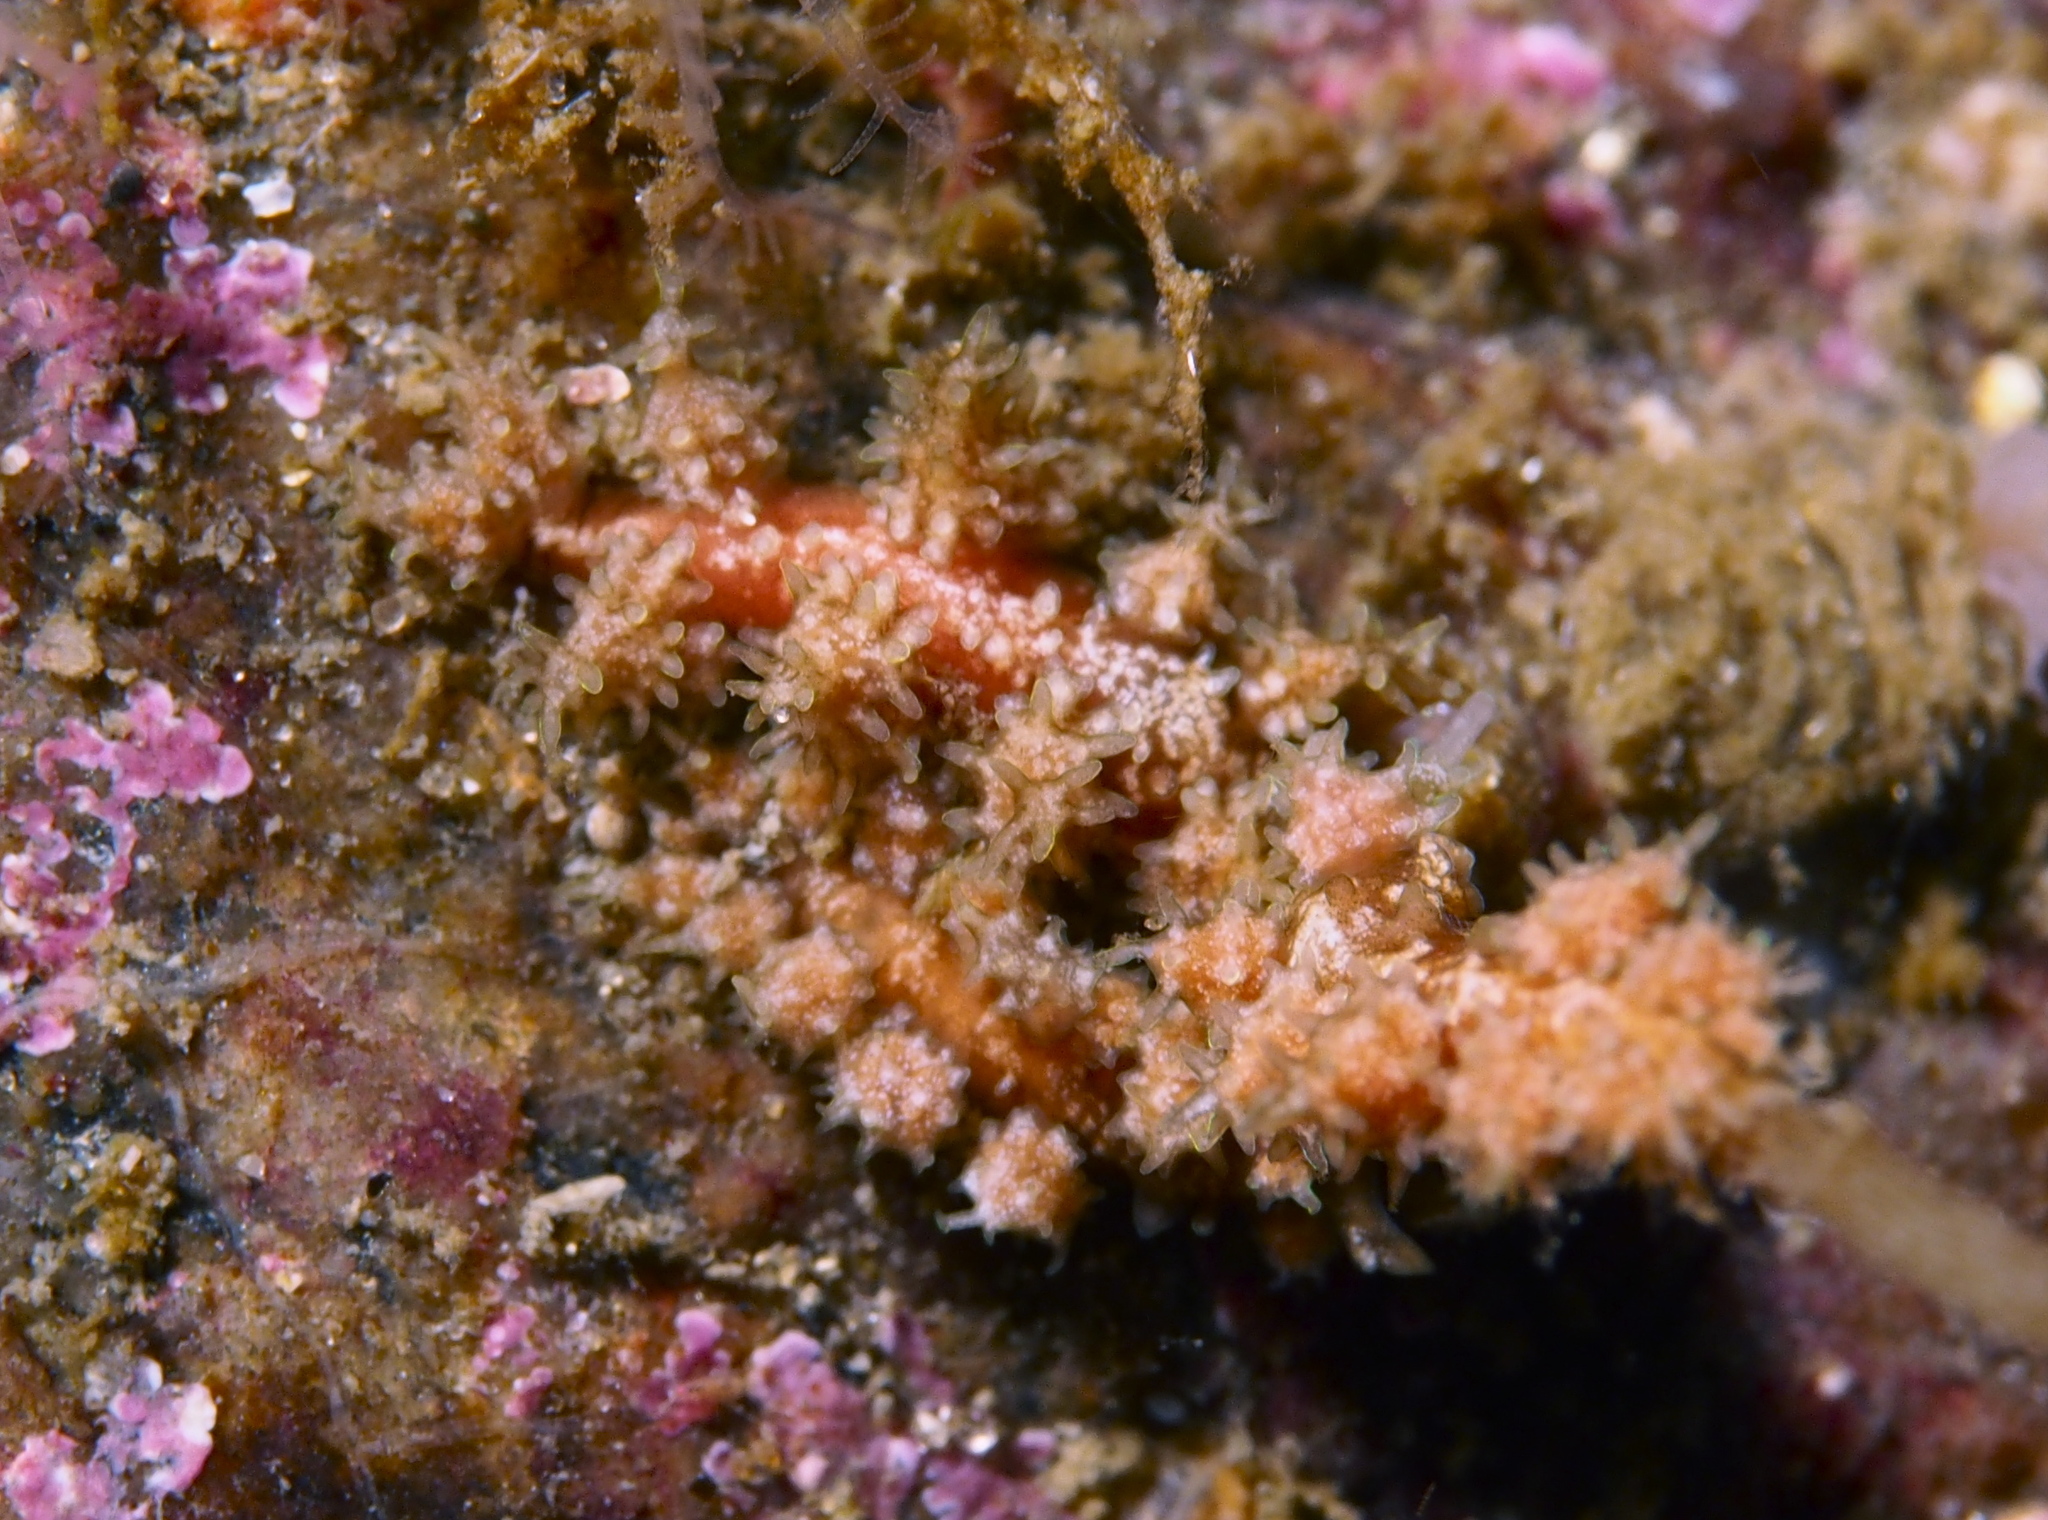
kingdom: Animalia
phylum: Mollusca
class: Gastropoda
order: Nudibranchia
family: Dotidae
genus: Doto
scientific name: Doto hystrix
